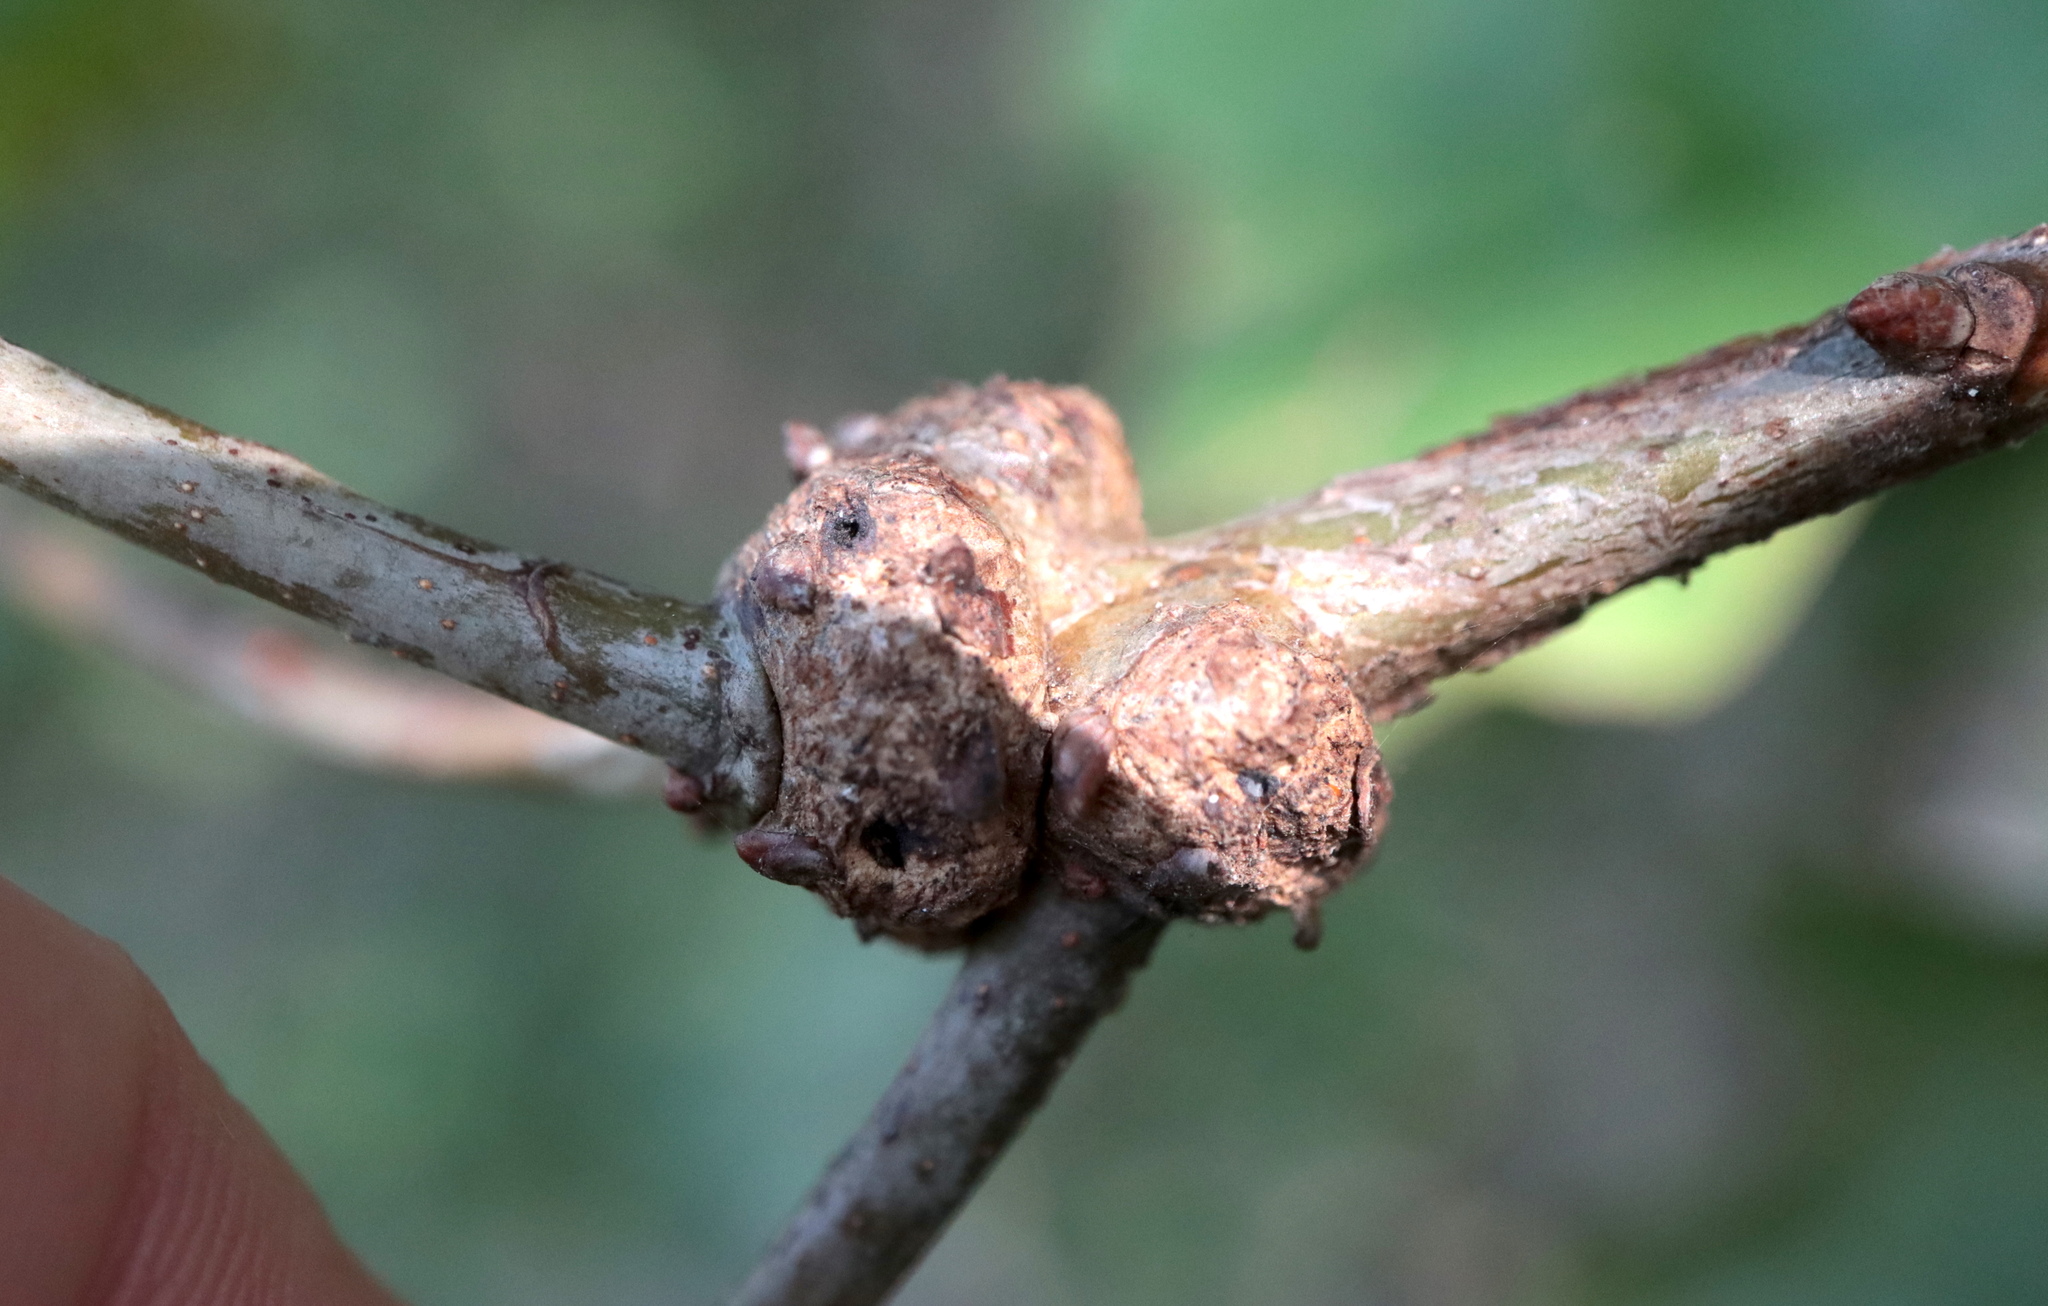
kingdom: Animalia
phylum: Arthropoda
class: Insecta
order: Hymenoptera
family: Cynipidae
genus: Loxaulus
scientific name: Loxaulus
